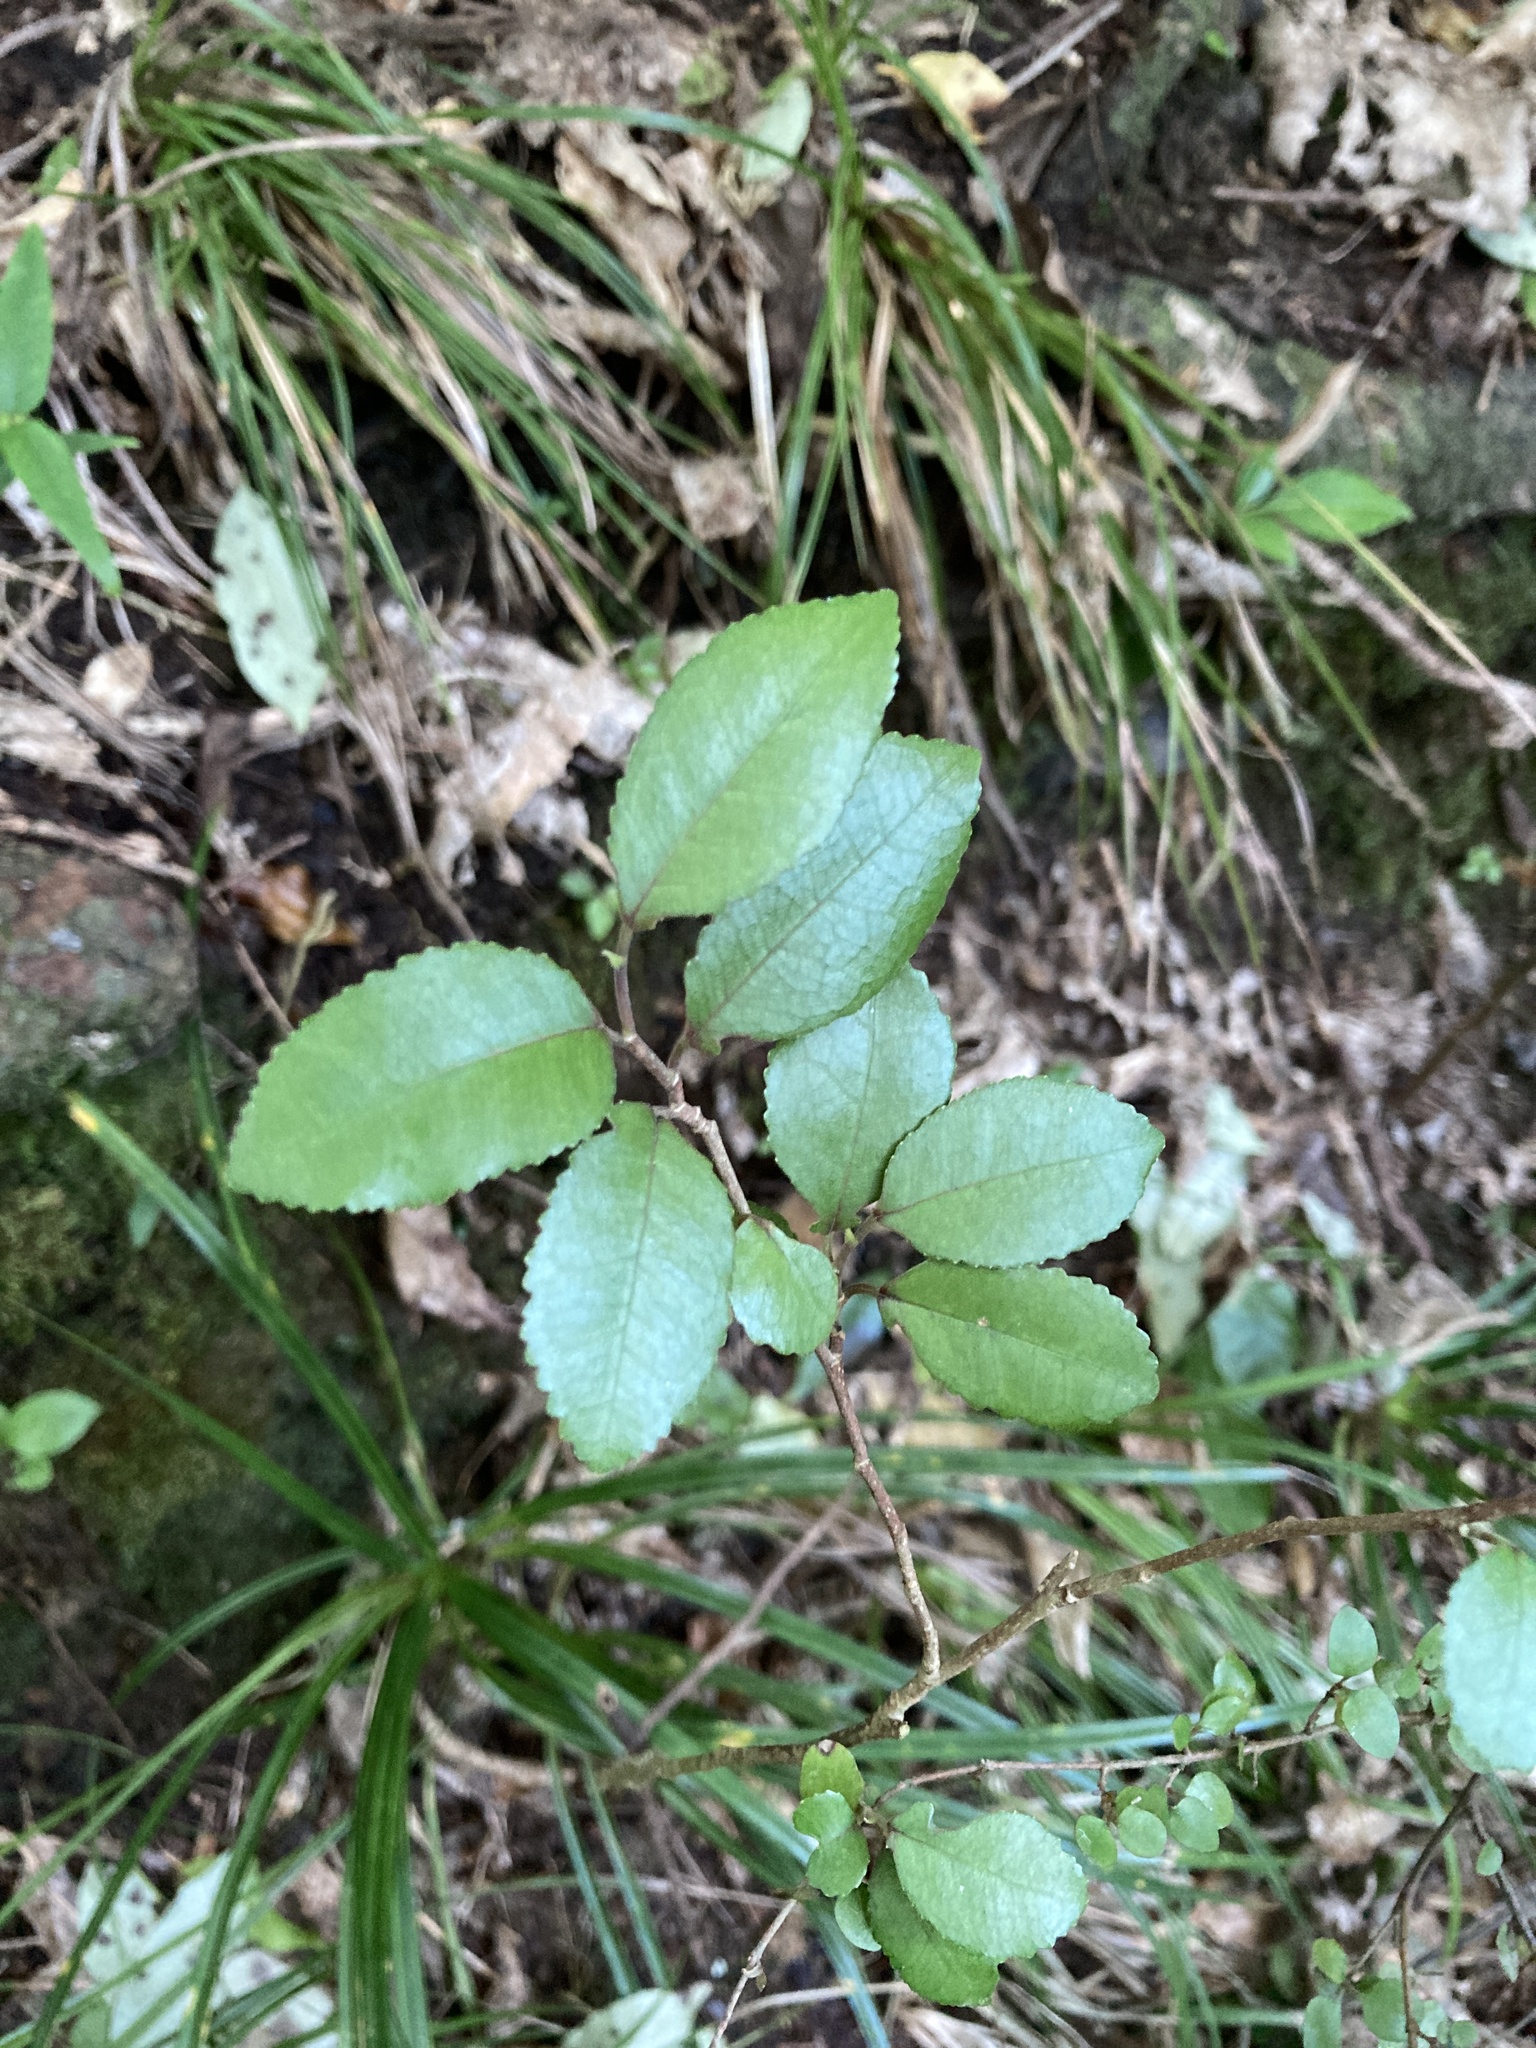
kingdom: Plantae
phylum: Tracheophyta
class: Magnoliopsida
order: Rosales
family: Moraceae
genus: Paratrophis
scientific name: Paratrophis banksii
